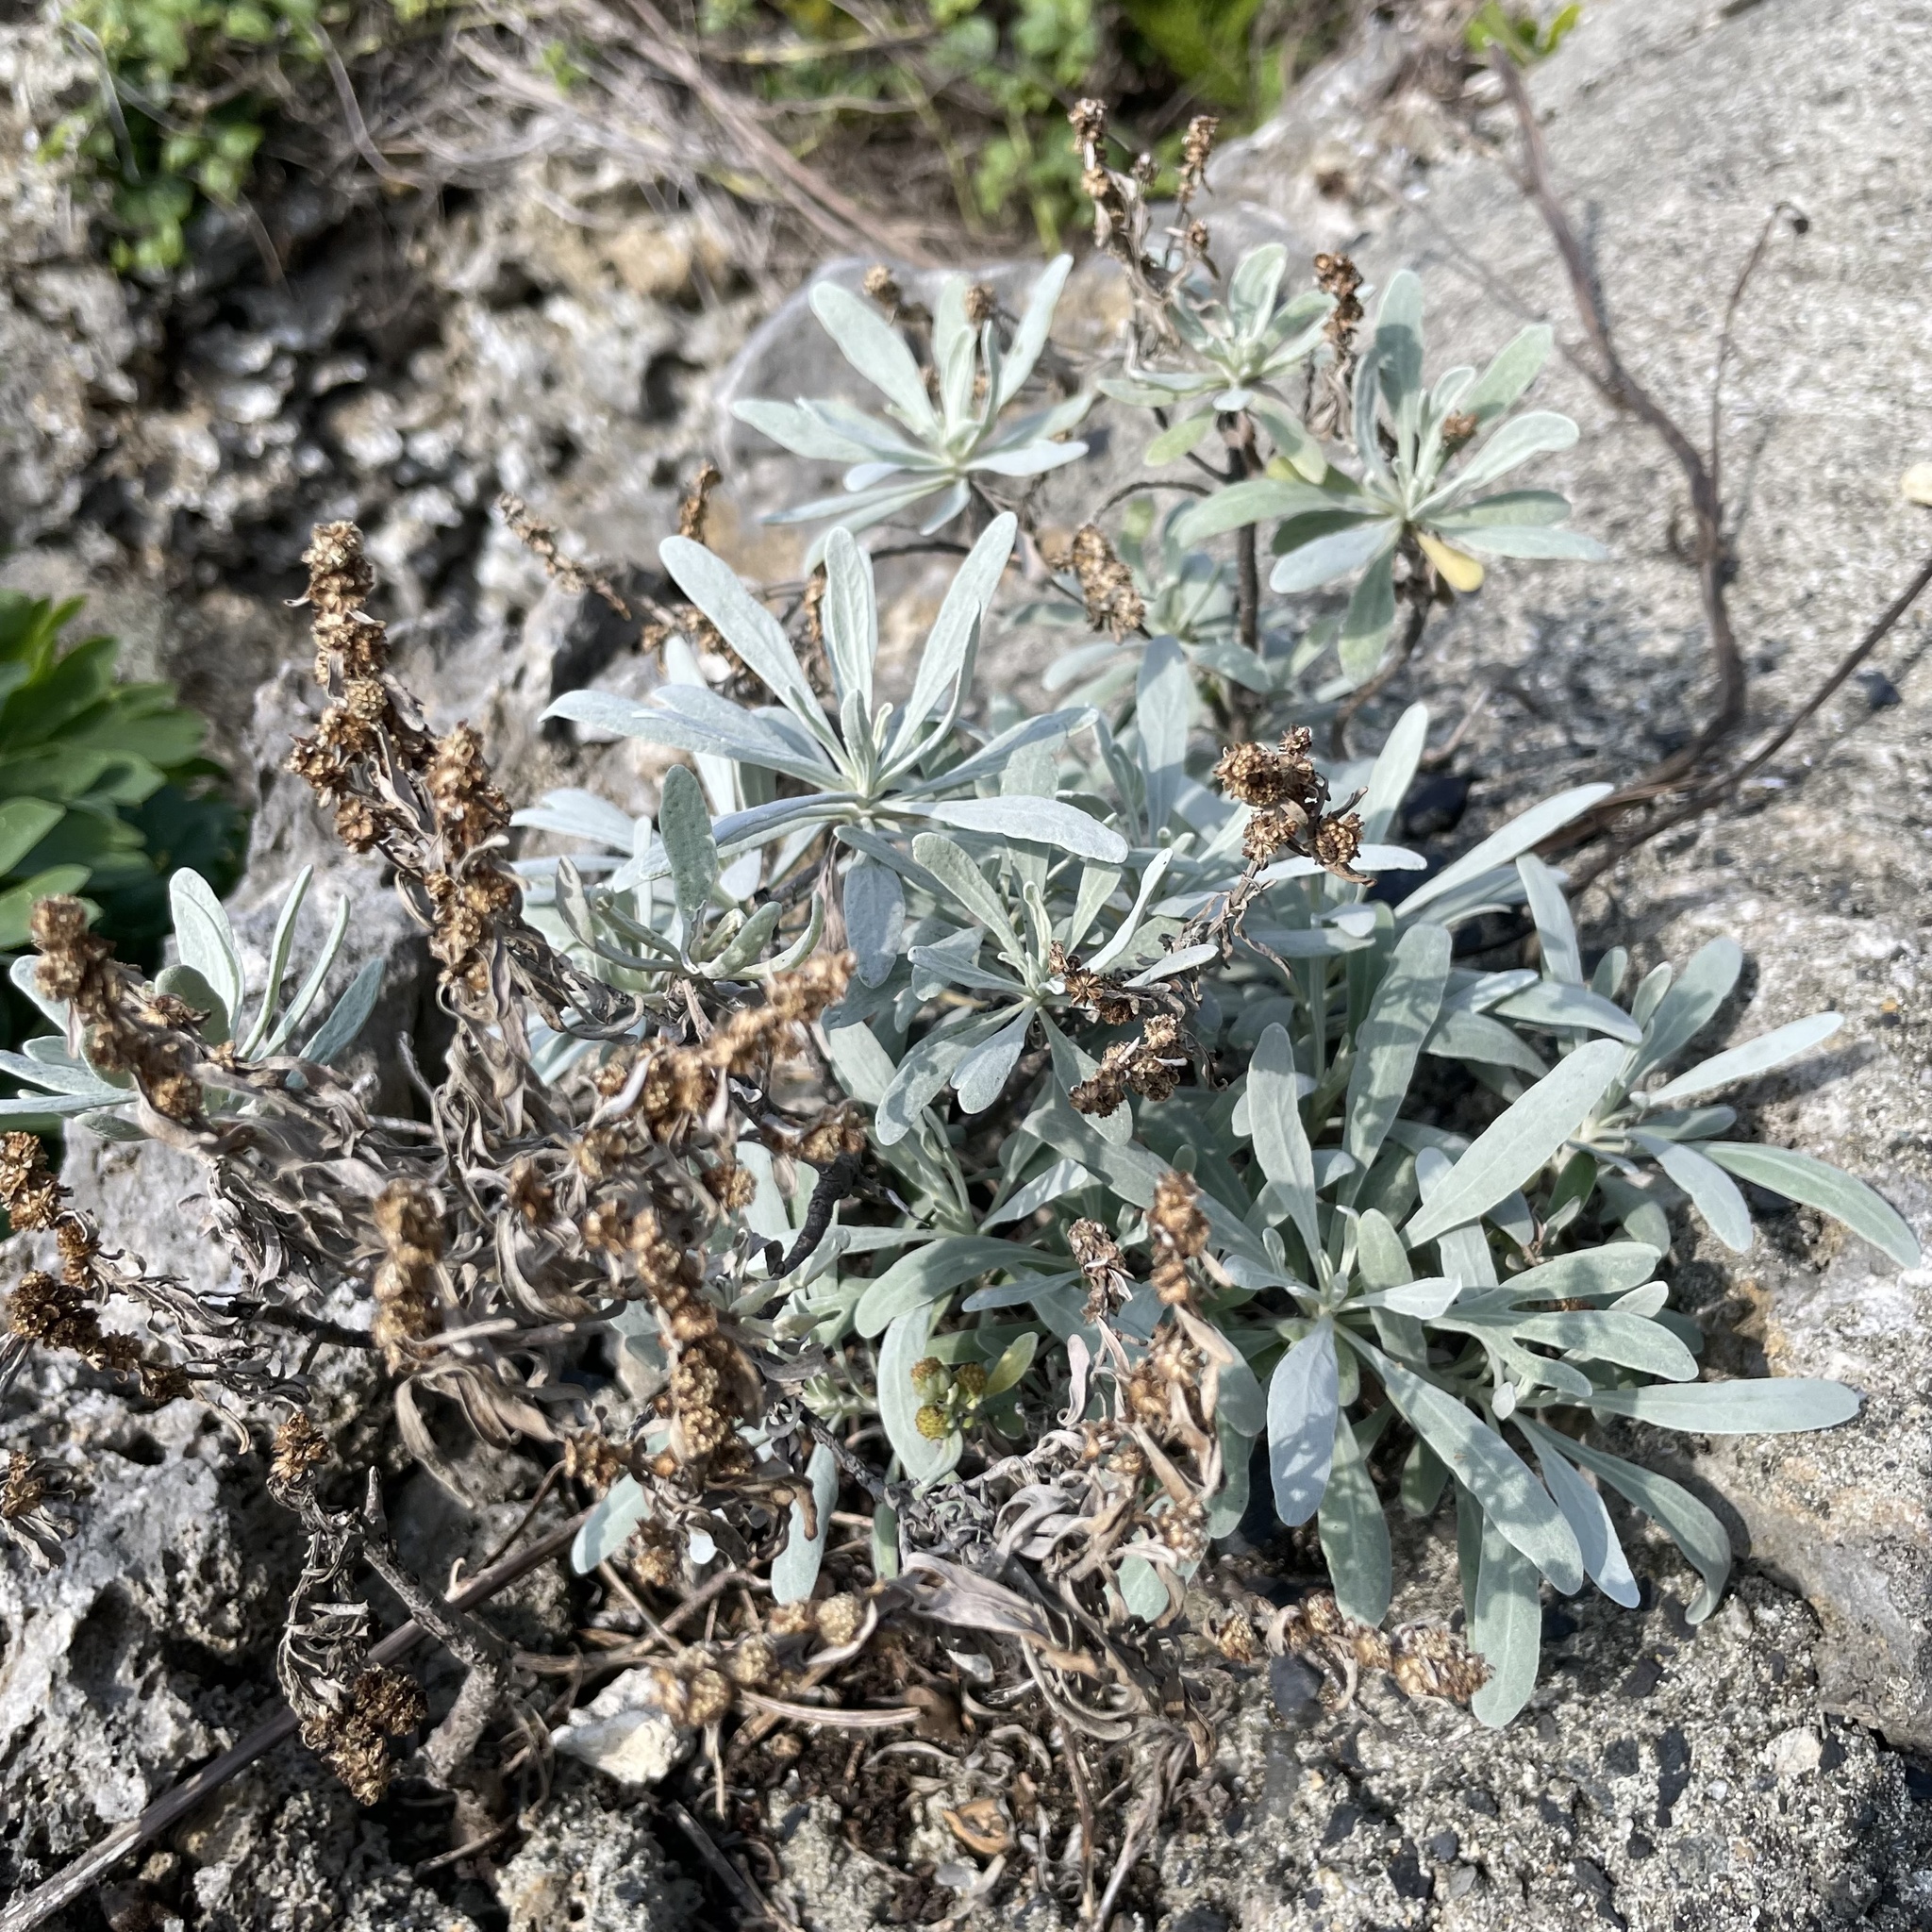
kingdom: Plantae
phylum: Tracheophyta
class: Magnoliopsida
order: Asterales
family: Asteraceae
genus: Crossostephium
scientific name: Crossostephium chinense
